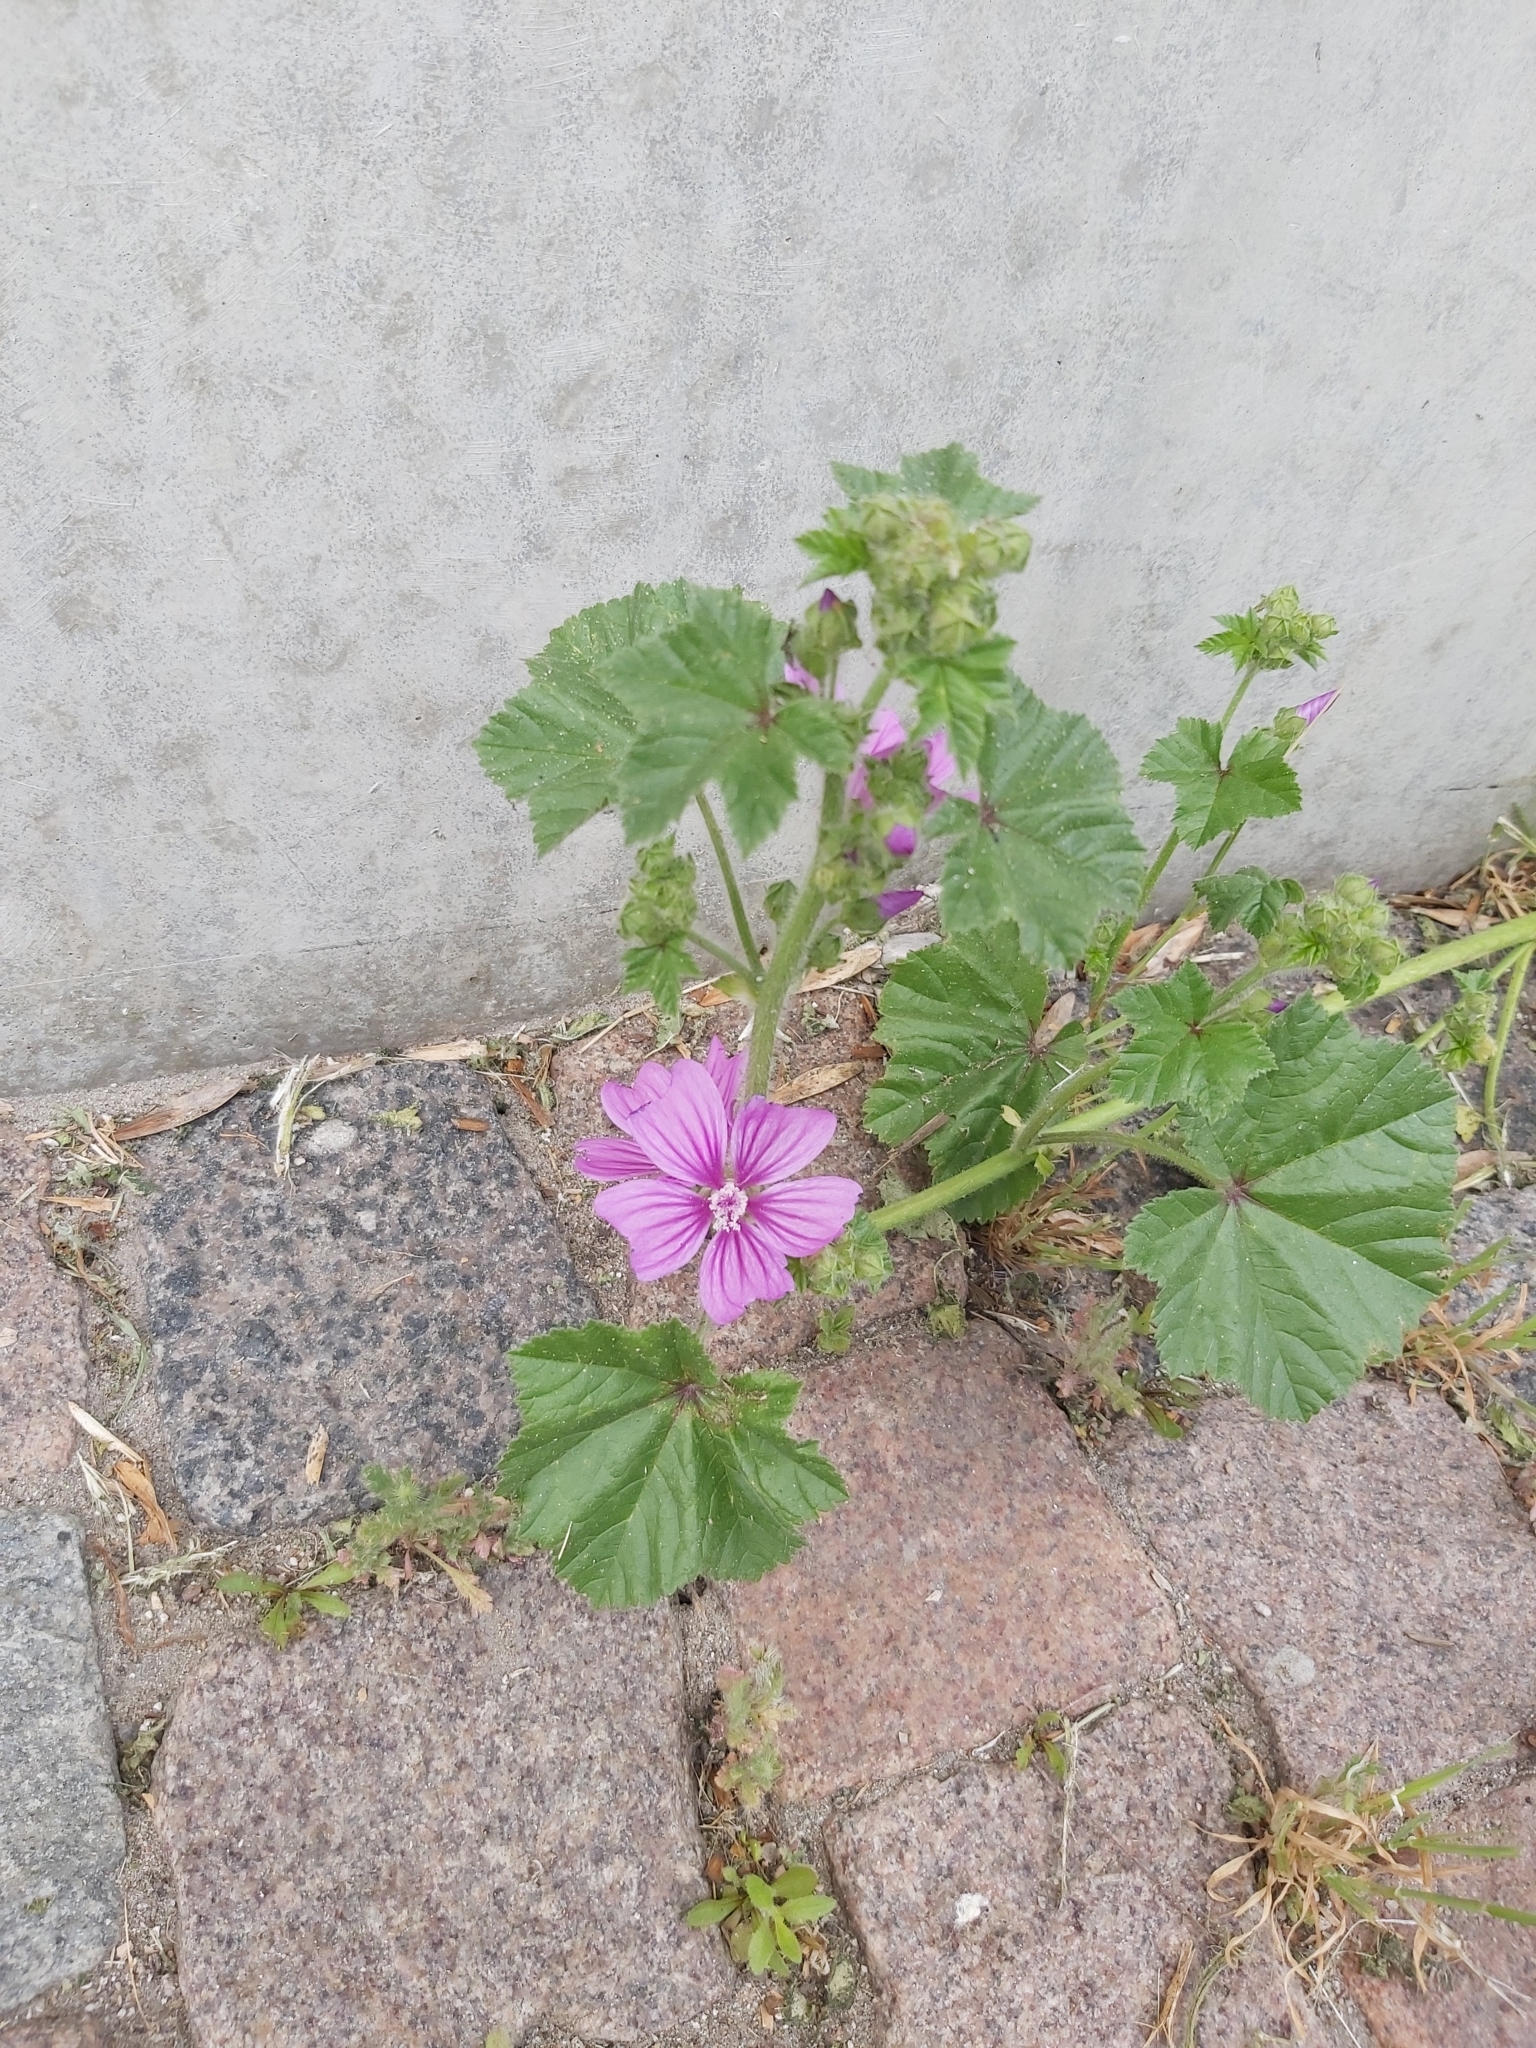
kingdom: Plantae
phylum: Tracheophyta
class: Magnoliopsida
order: Malvales
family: Malvaceae
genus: Malva
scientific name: Malva sylvestris
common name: Common mallow
